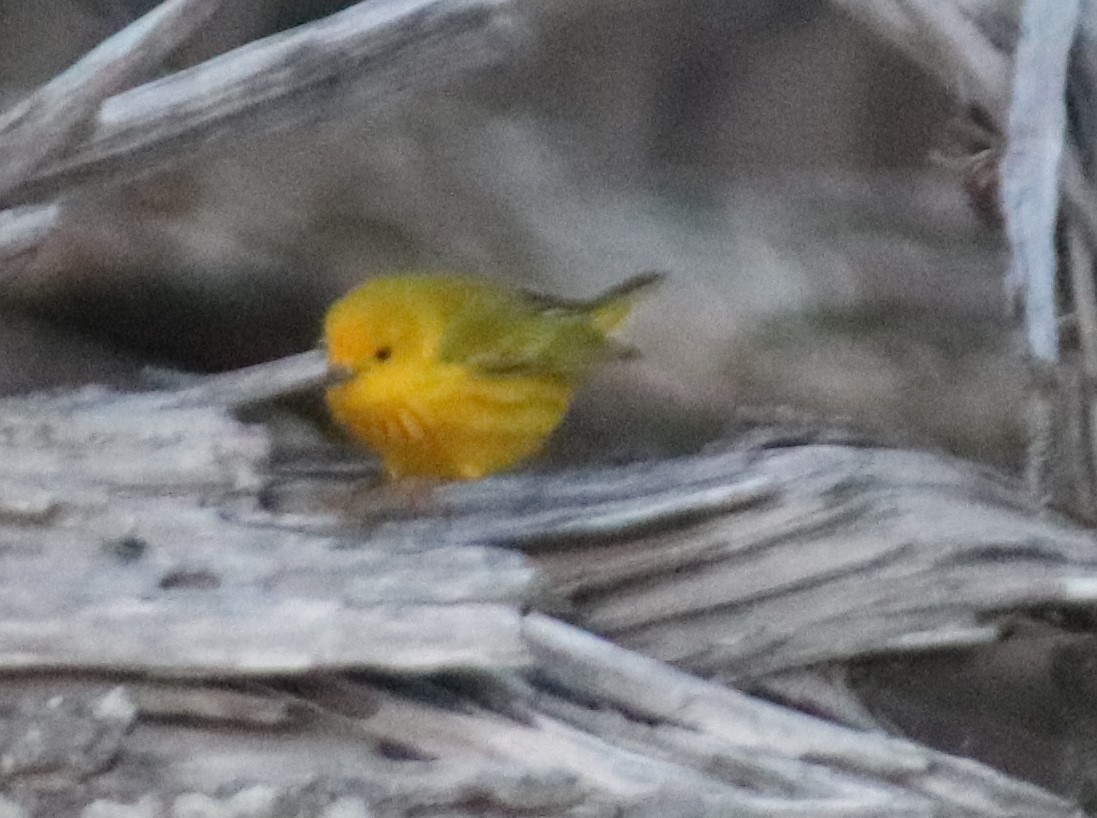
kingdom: Animalia
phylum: Chordata
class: Aves
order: Passeriformes
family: Parulidae
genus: Setophaga
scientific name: Setophaga petechia
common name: Yellow warbler
